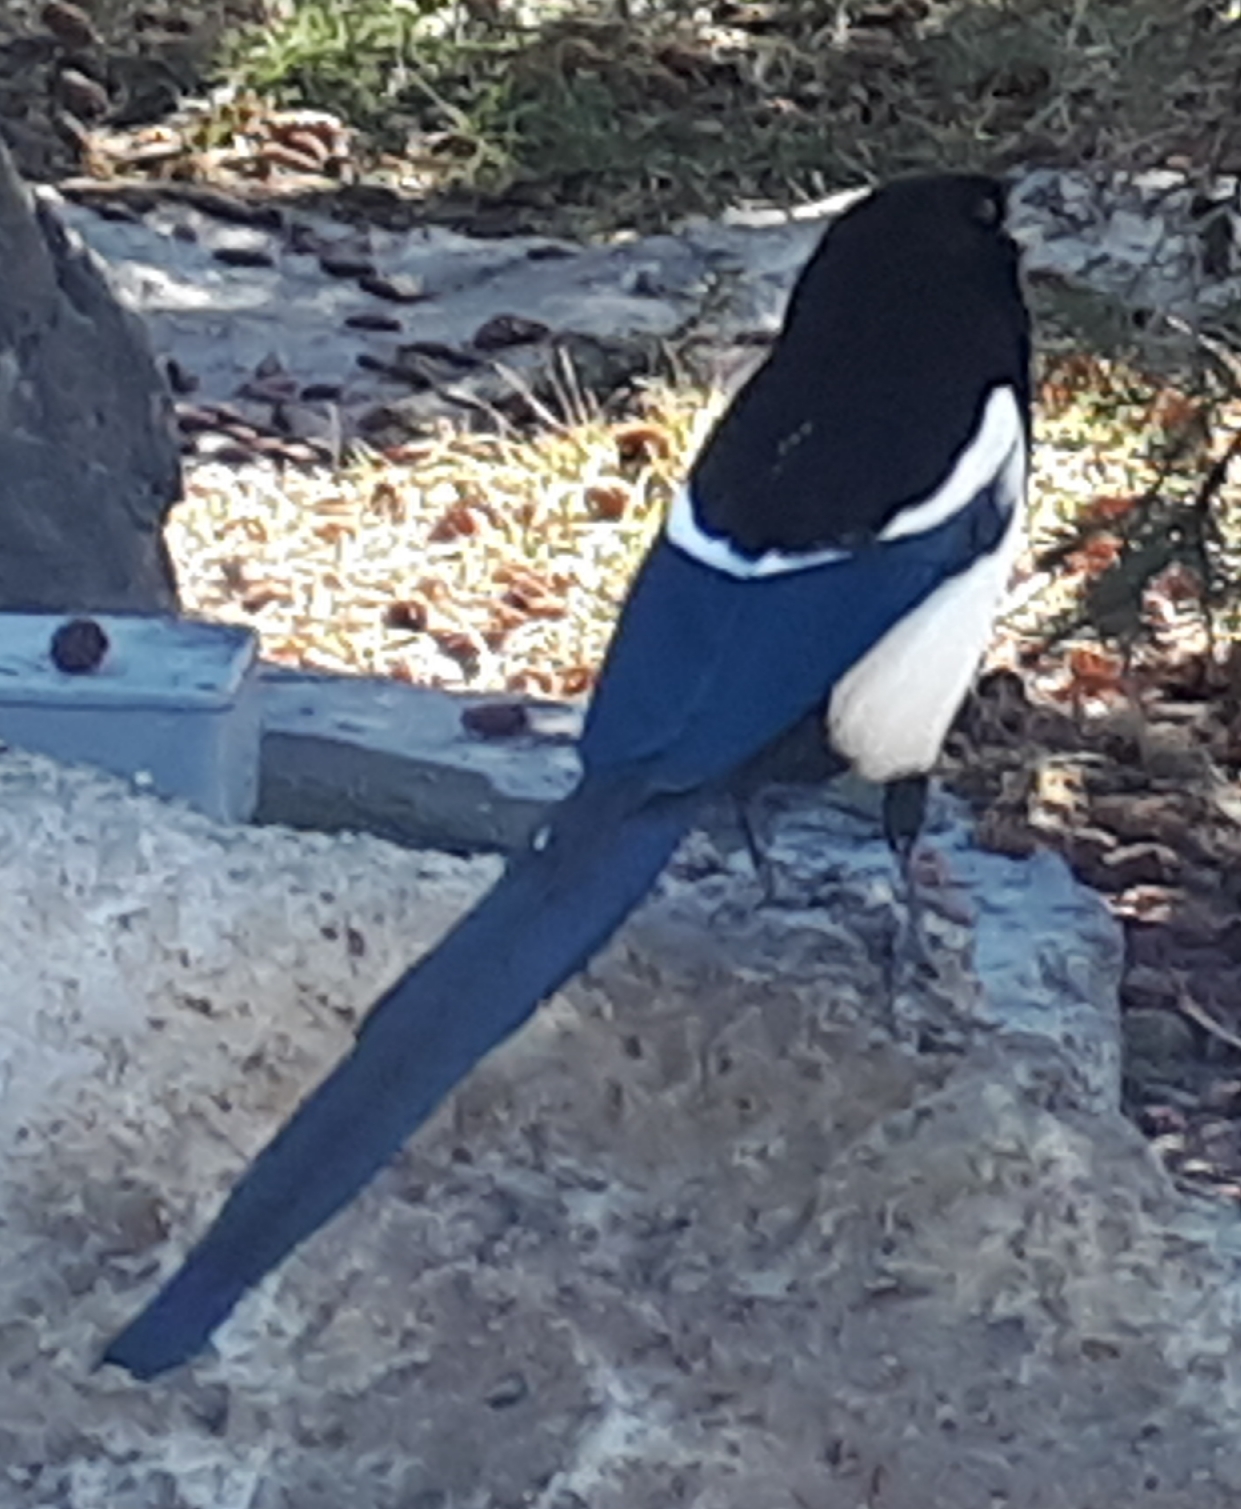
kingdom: Animalia
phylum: Chordata
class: Aves
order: Passeriformes
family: Corvidae
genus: Pica
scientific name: Pica hudsonia
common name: Black-billed magpie
